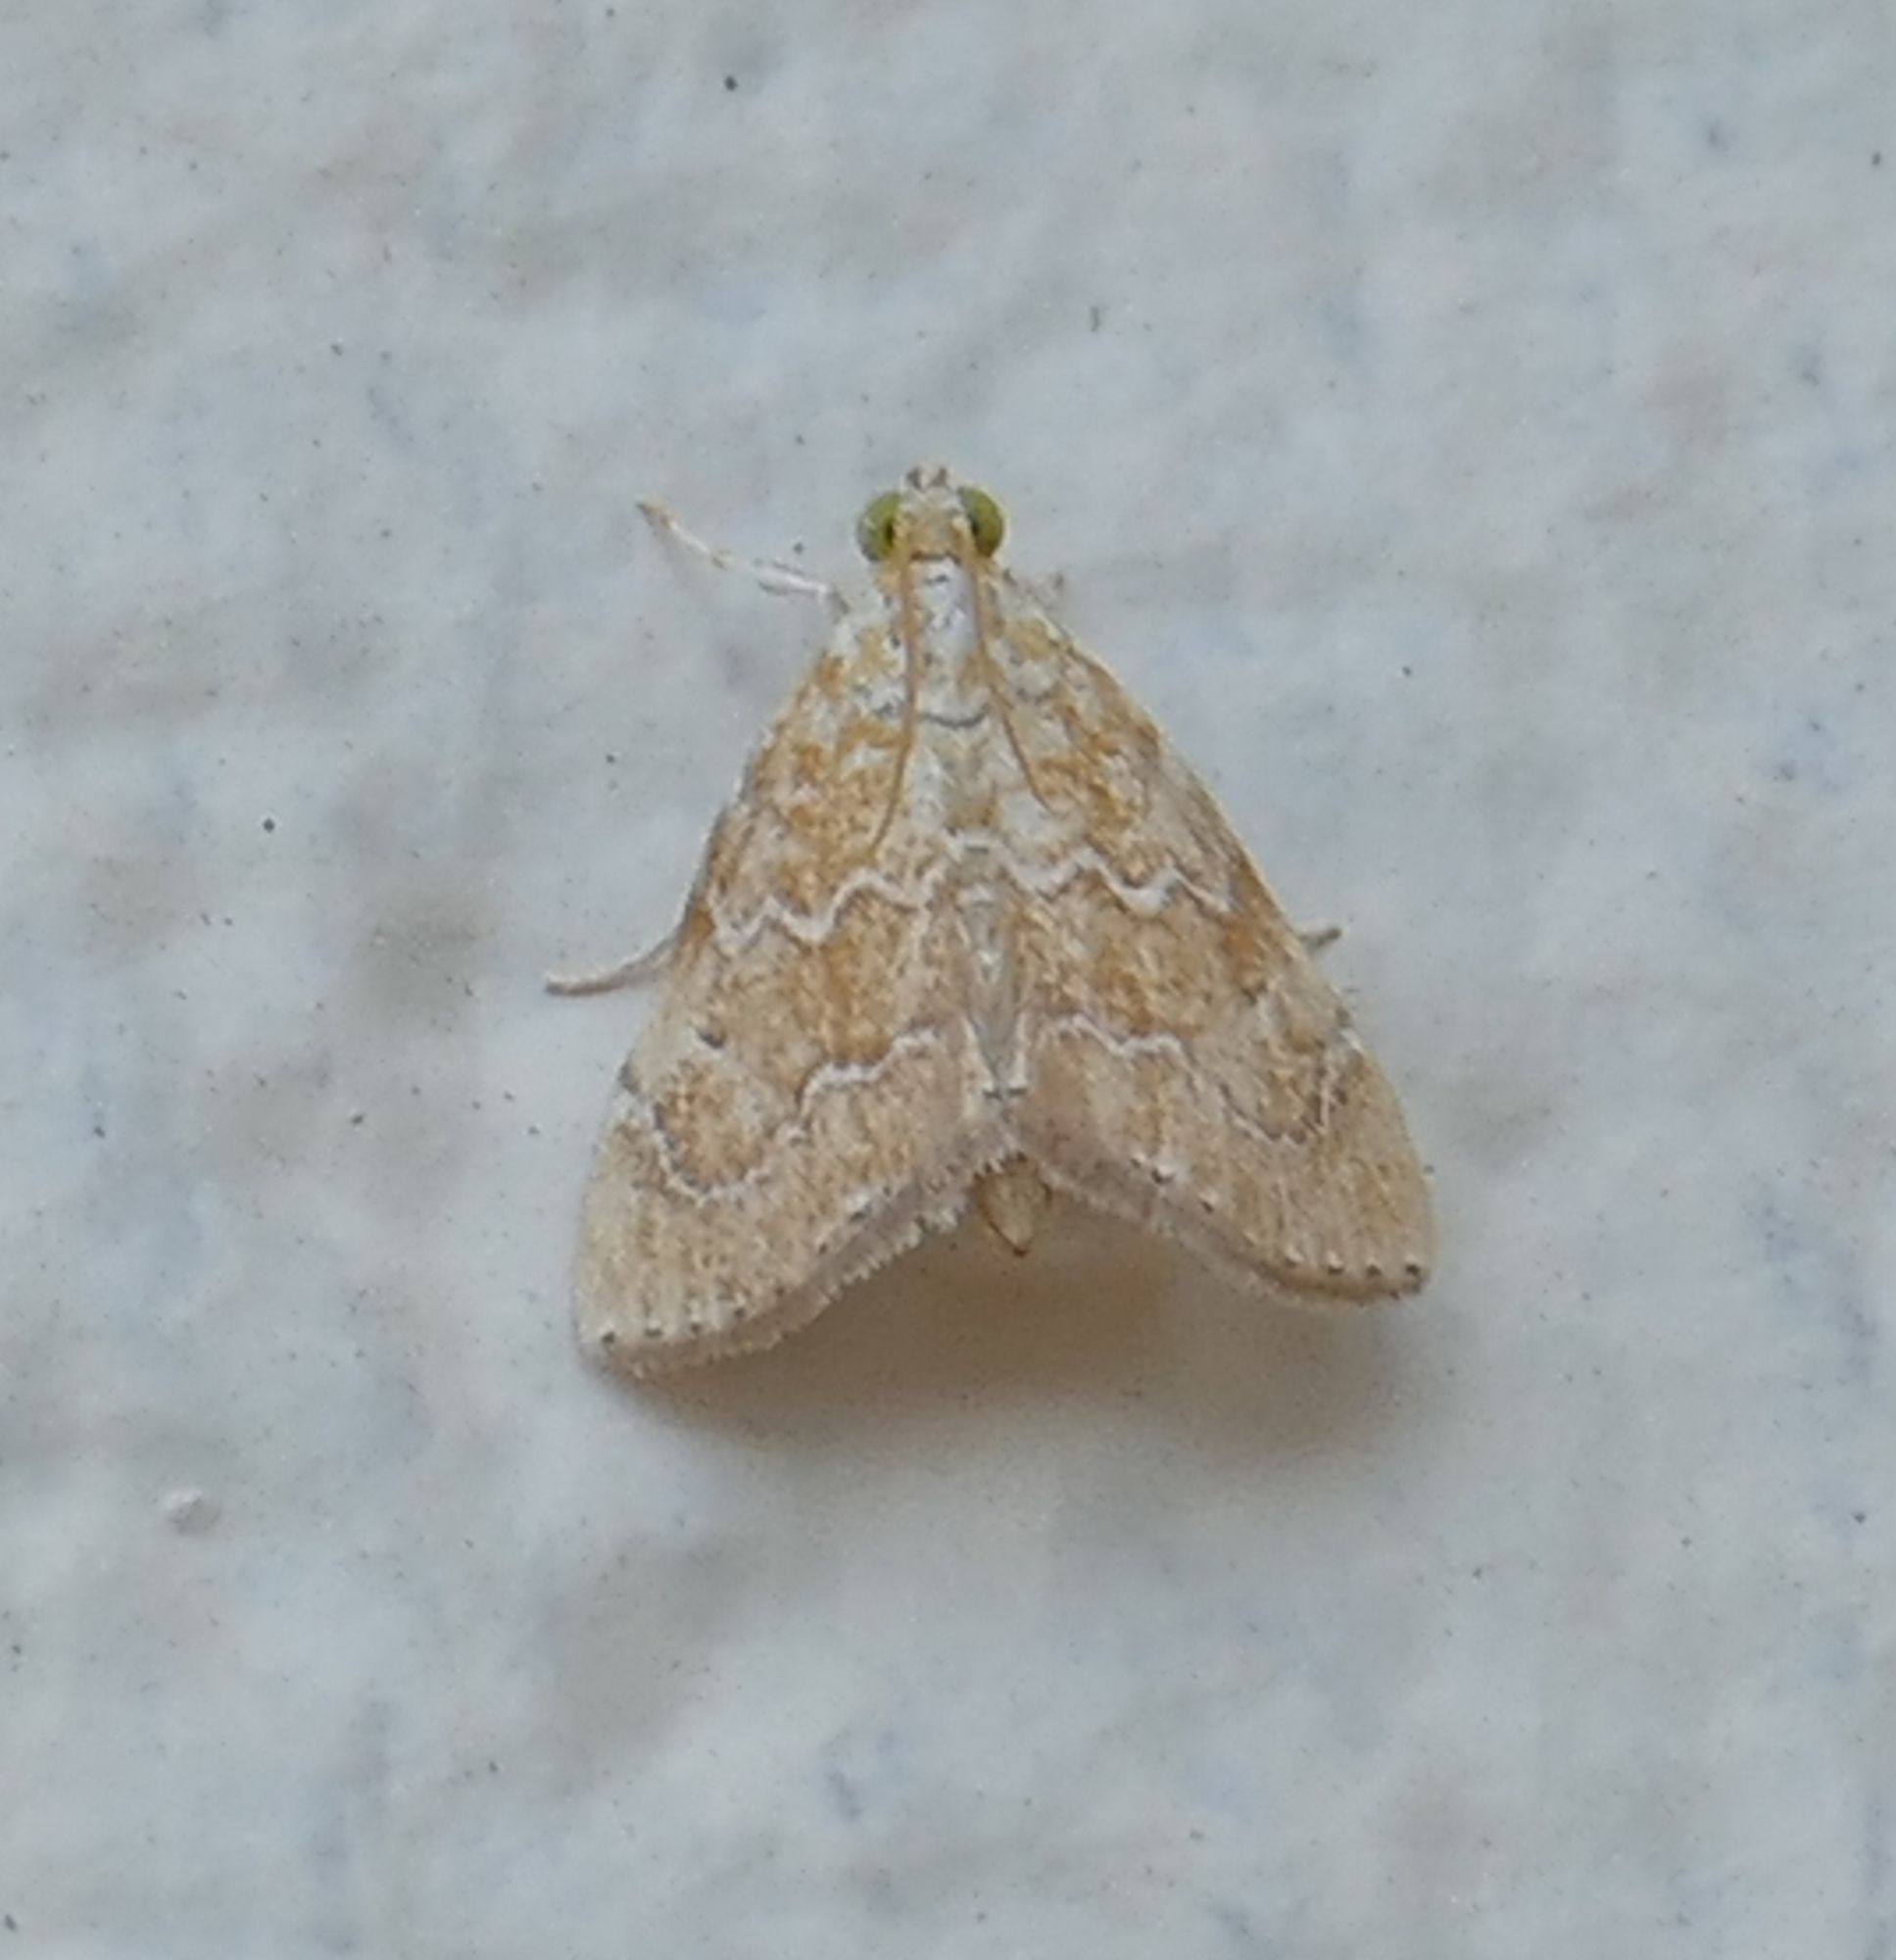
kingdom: Animalia
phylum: Arthropoda
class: Insecta
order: Lepidoptera
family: Crambidae
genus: Glaphyria
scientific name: Glaphyria sesquistrialis
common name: White-roped glaphyria
